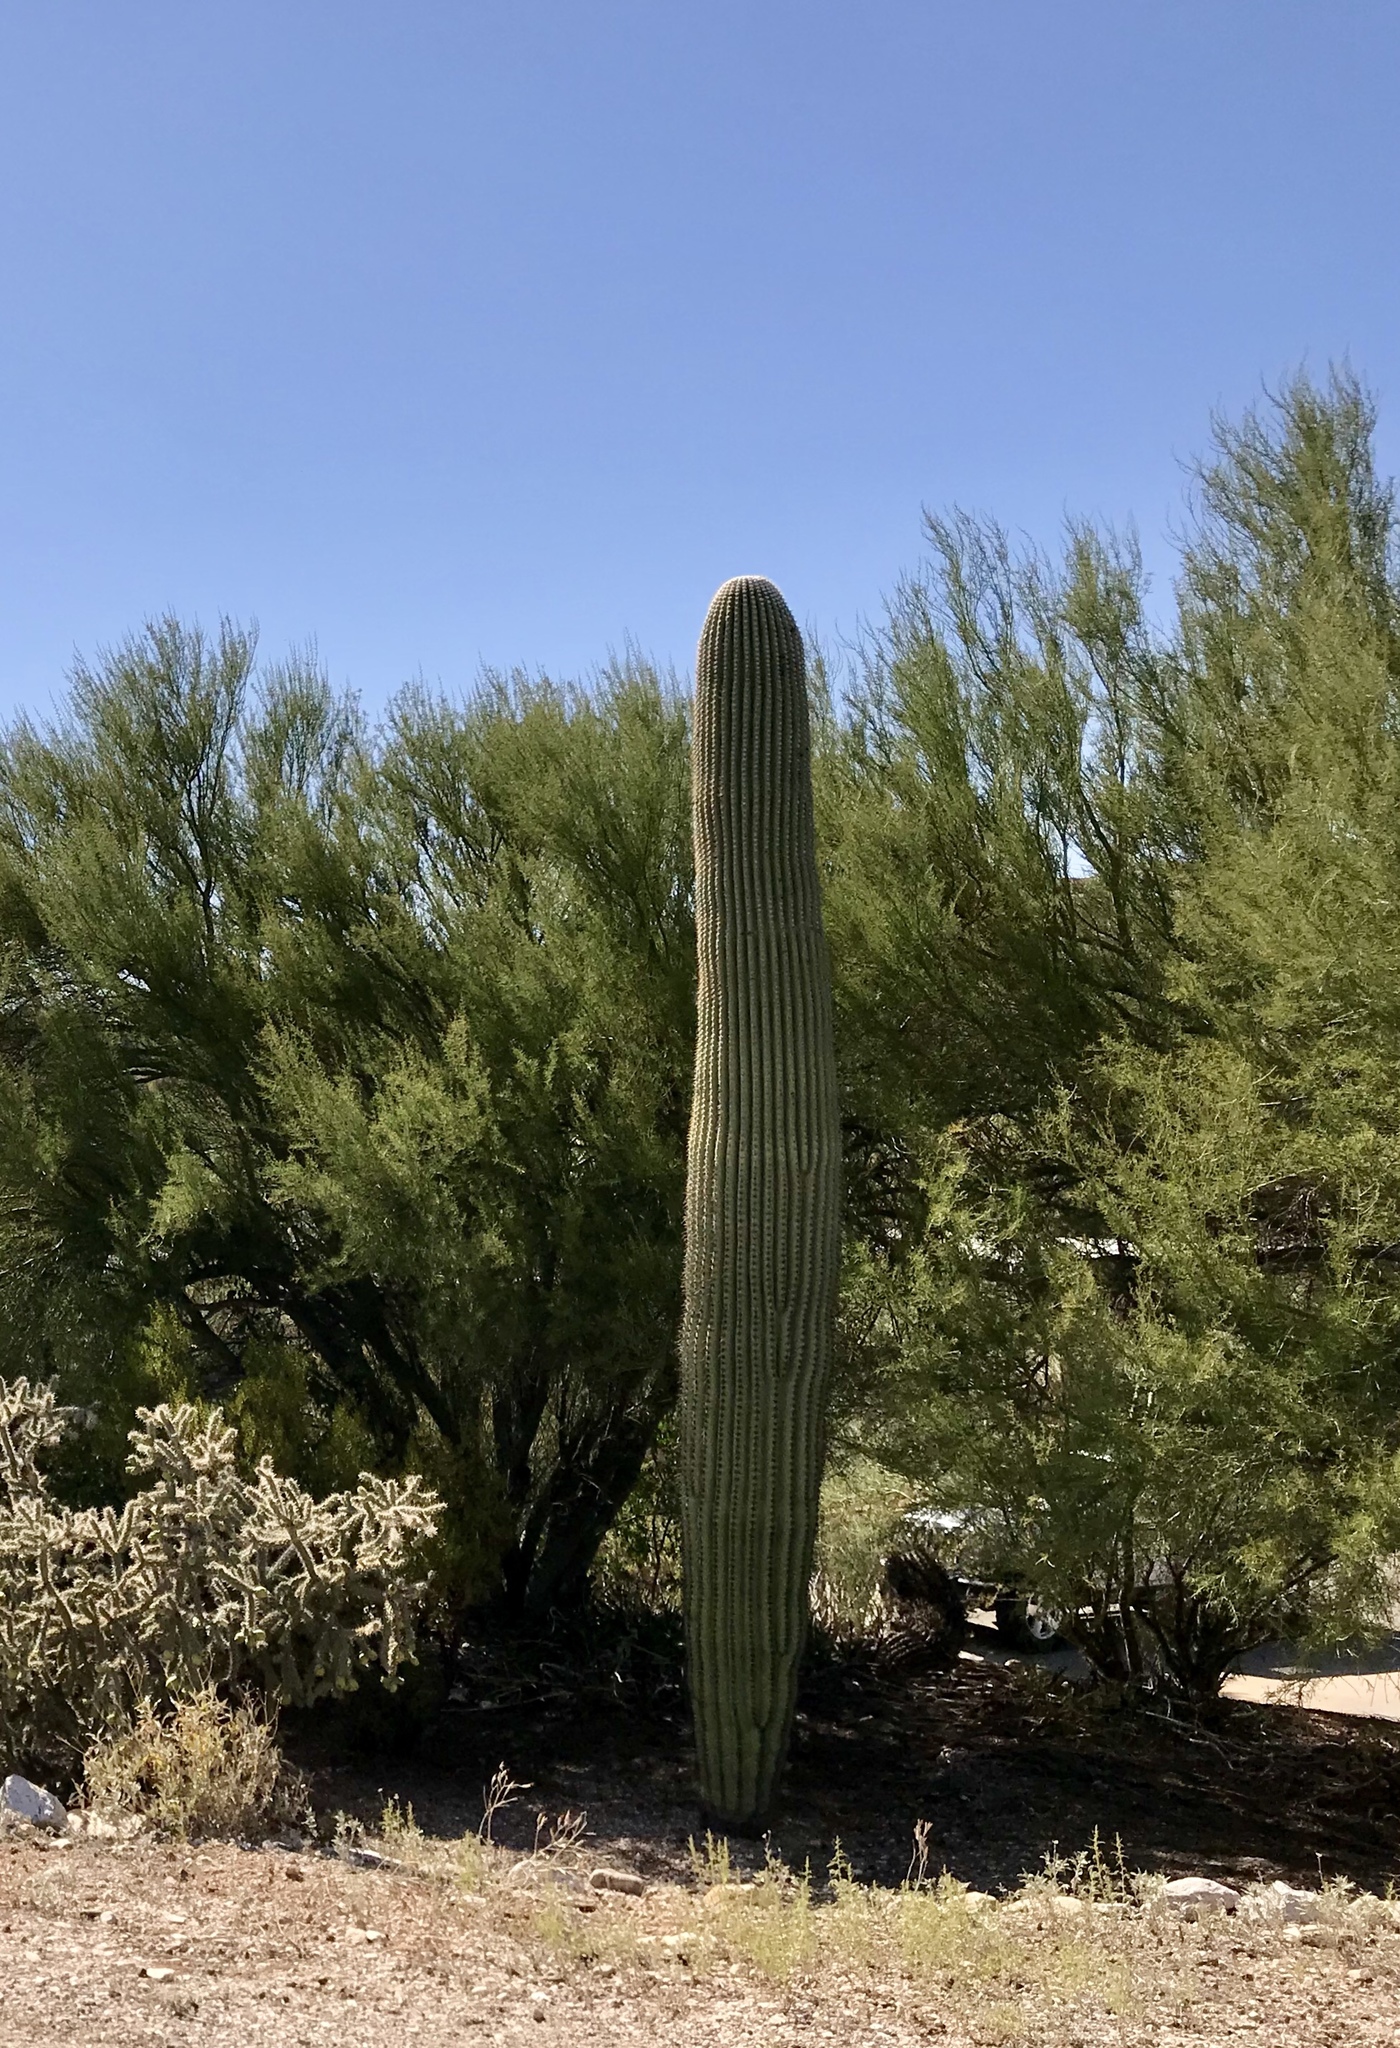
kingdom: Plantae
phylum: Tracheophyta
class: Magnoliopsida
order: Caryophyllales
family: Cactaceae
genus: Carnegiea
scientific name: Carnegiea gigantea
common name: Saguaro
